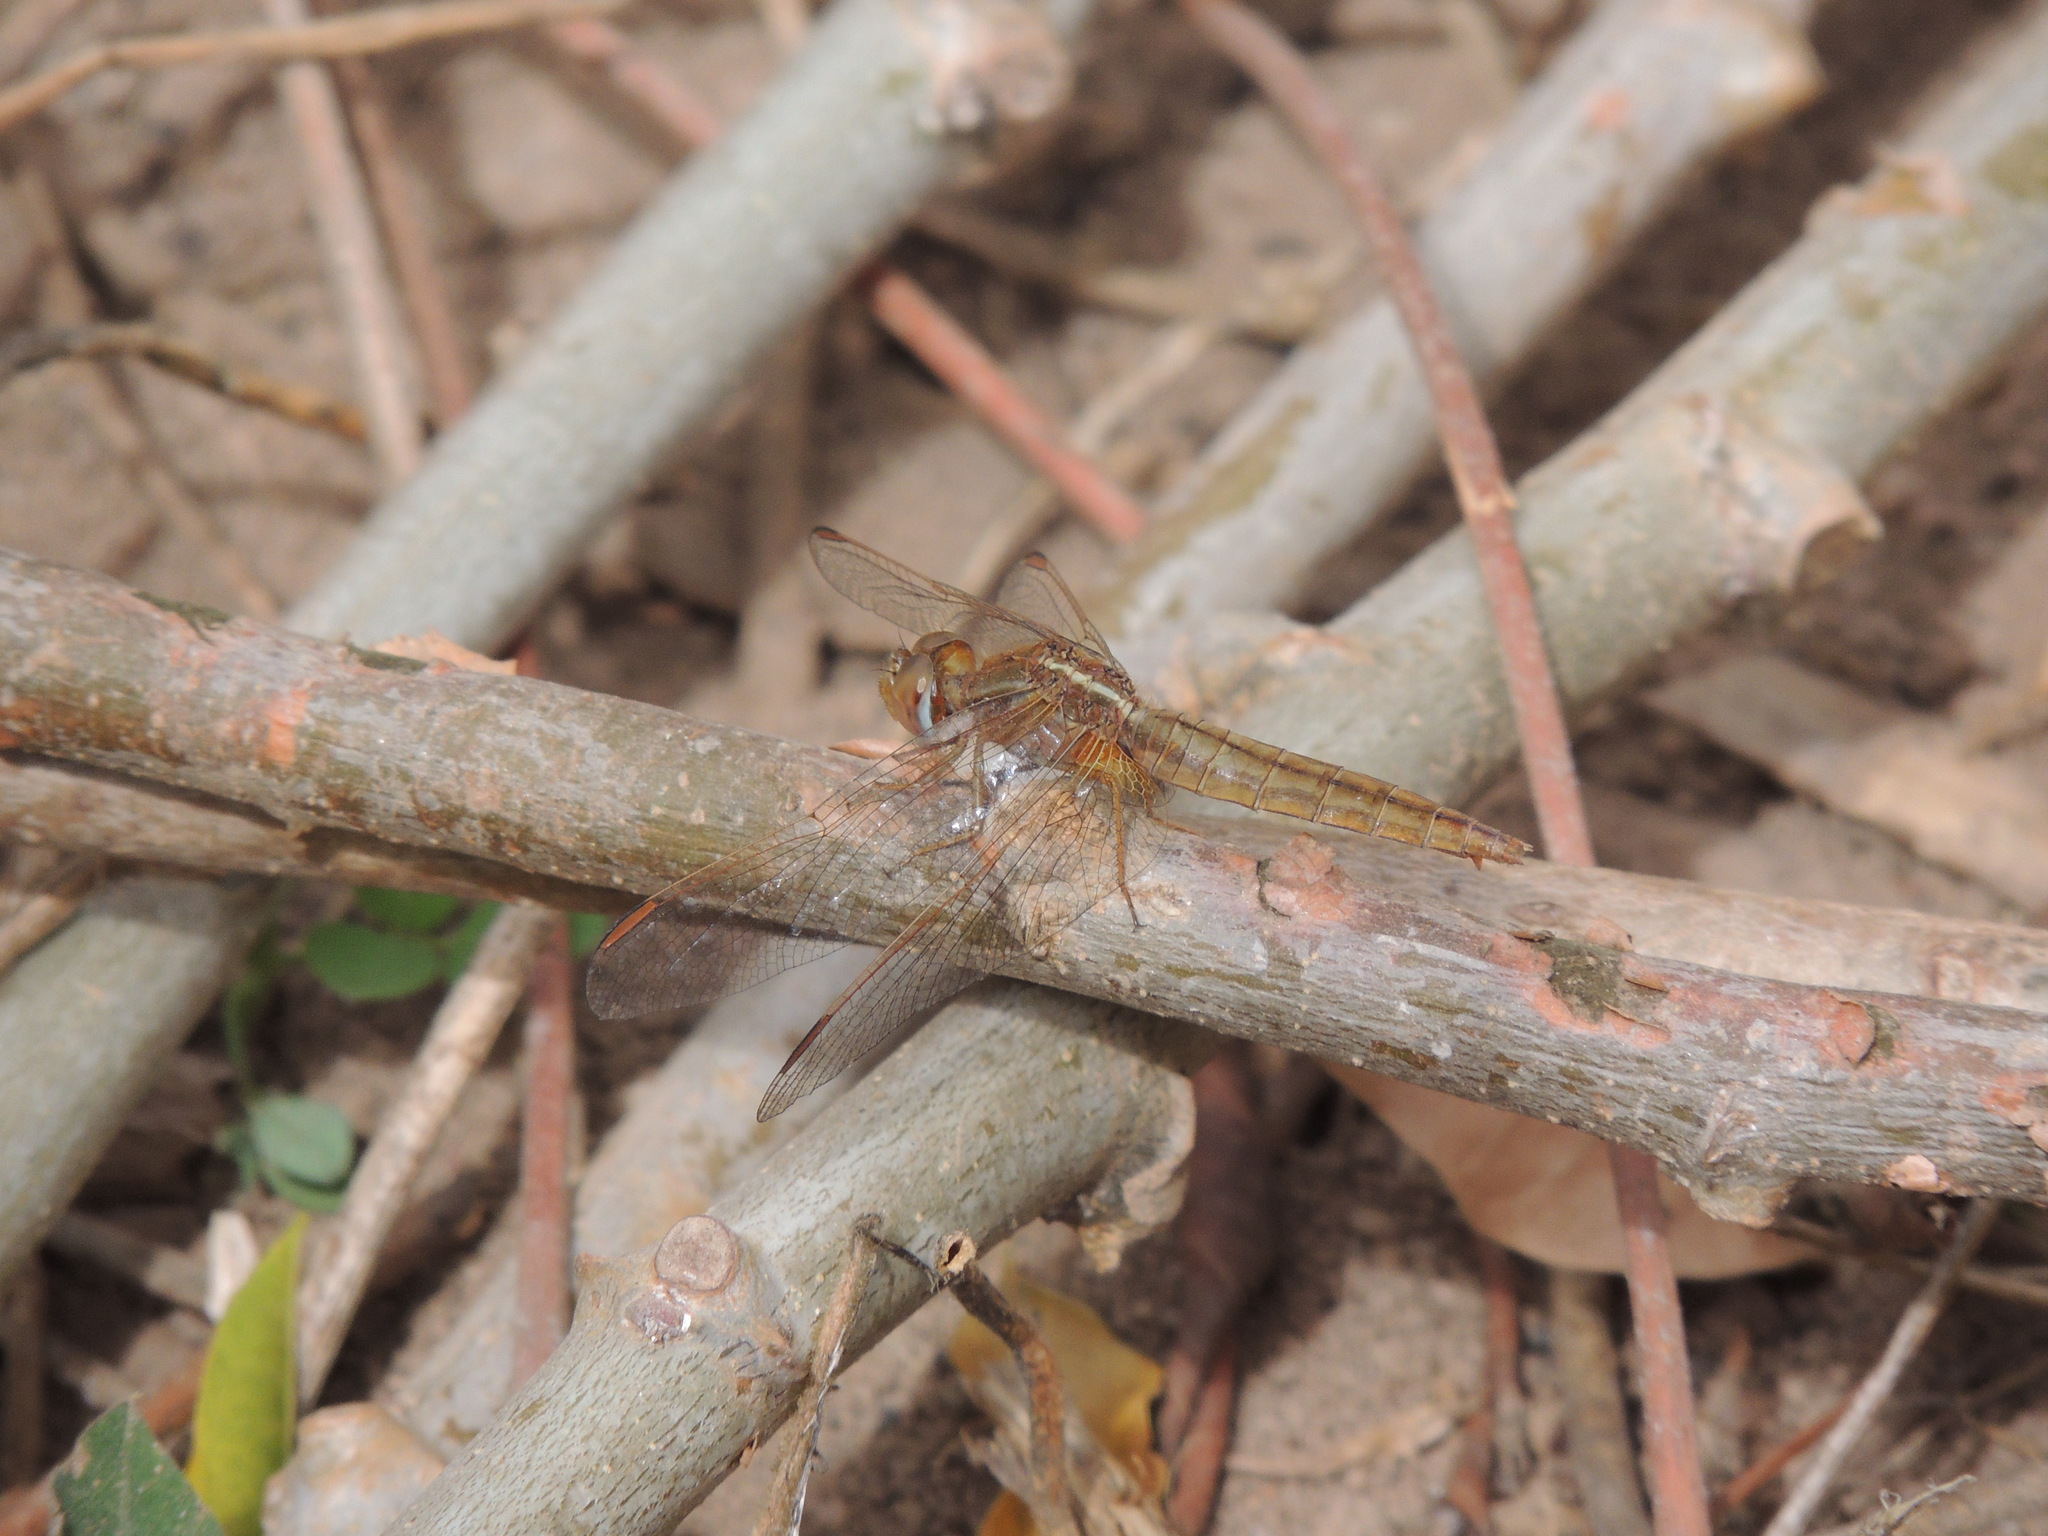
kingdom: Animalia
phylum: Arthropoda
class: Insecta
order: Odonata
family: Libellulidae
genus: Crocothemis
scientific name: Crocothemis erythraea
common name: Scarlet dragonfly
